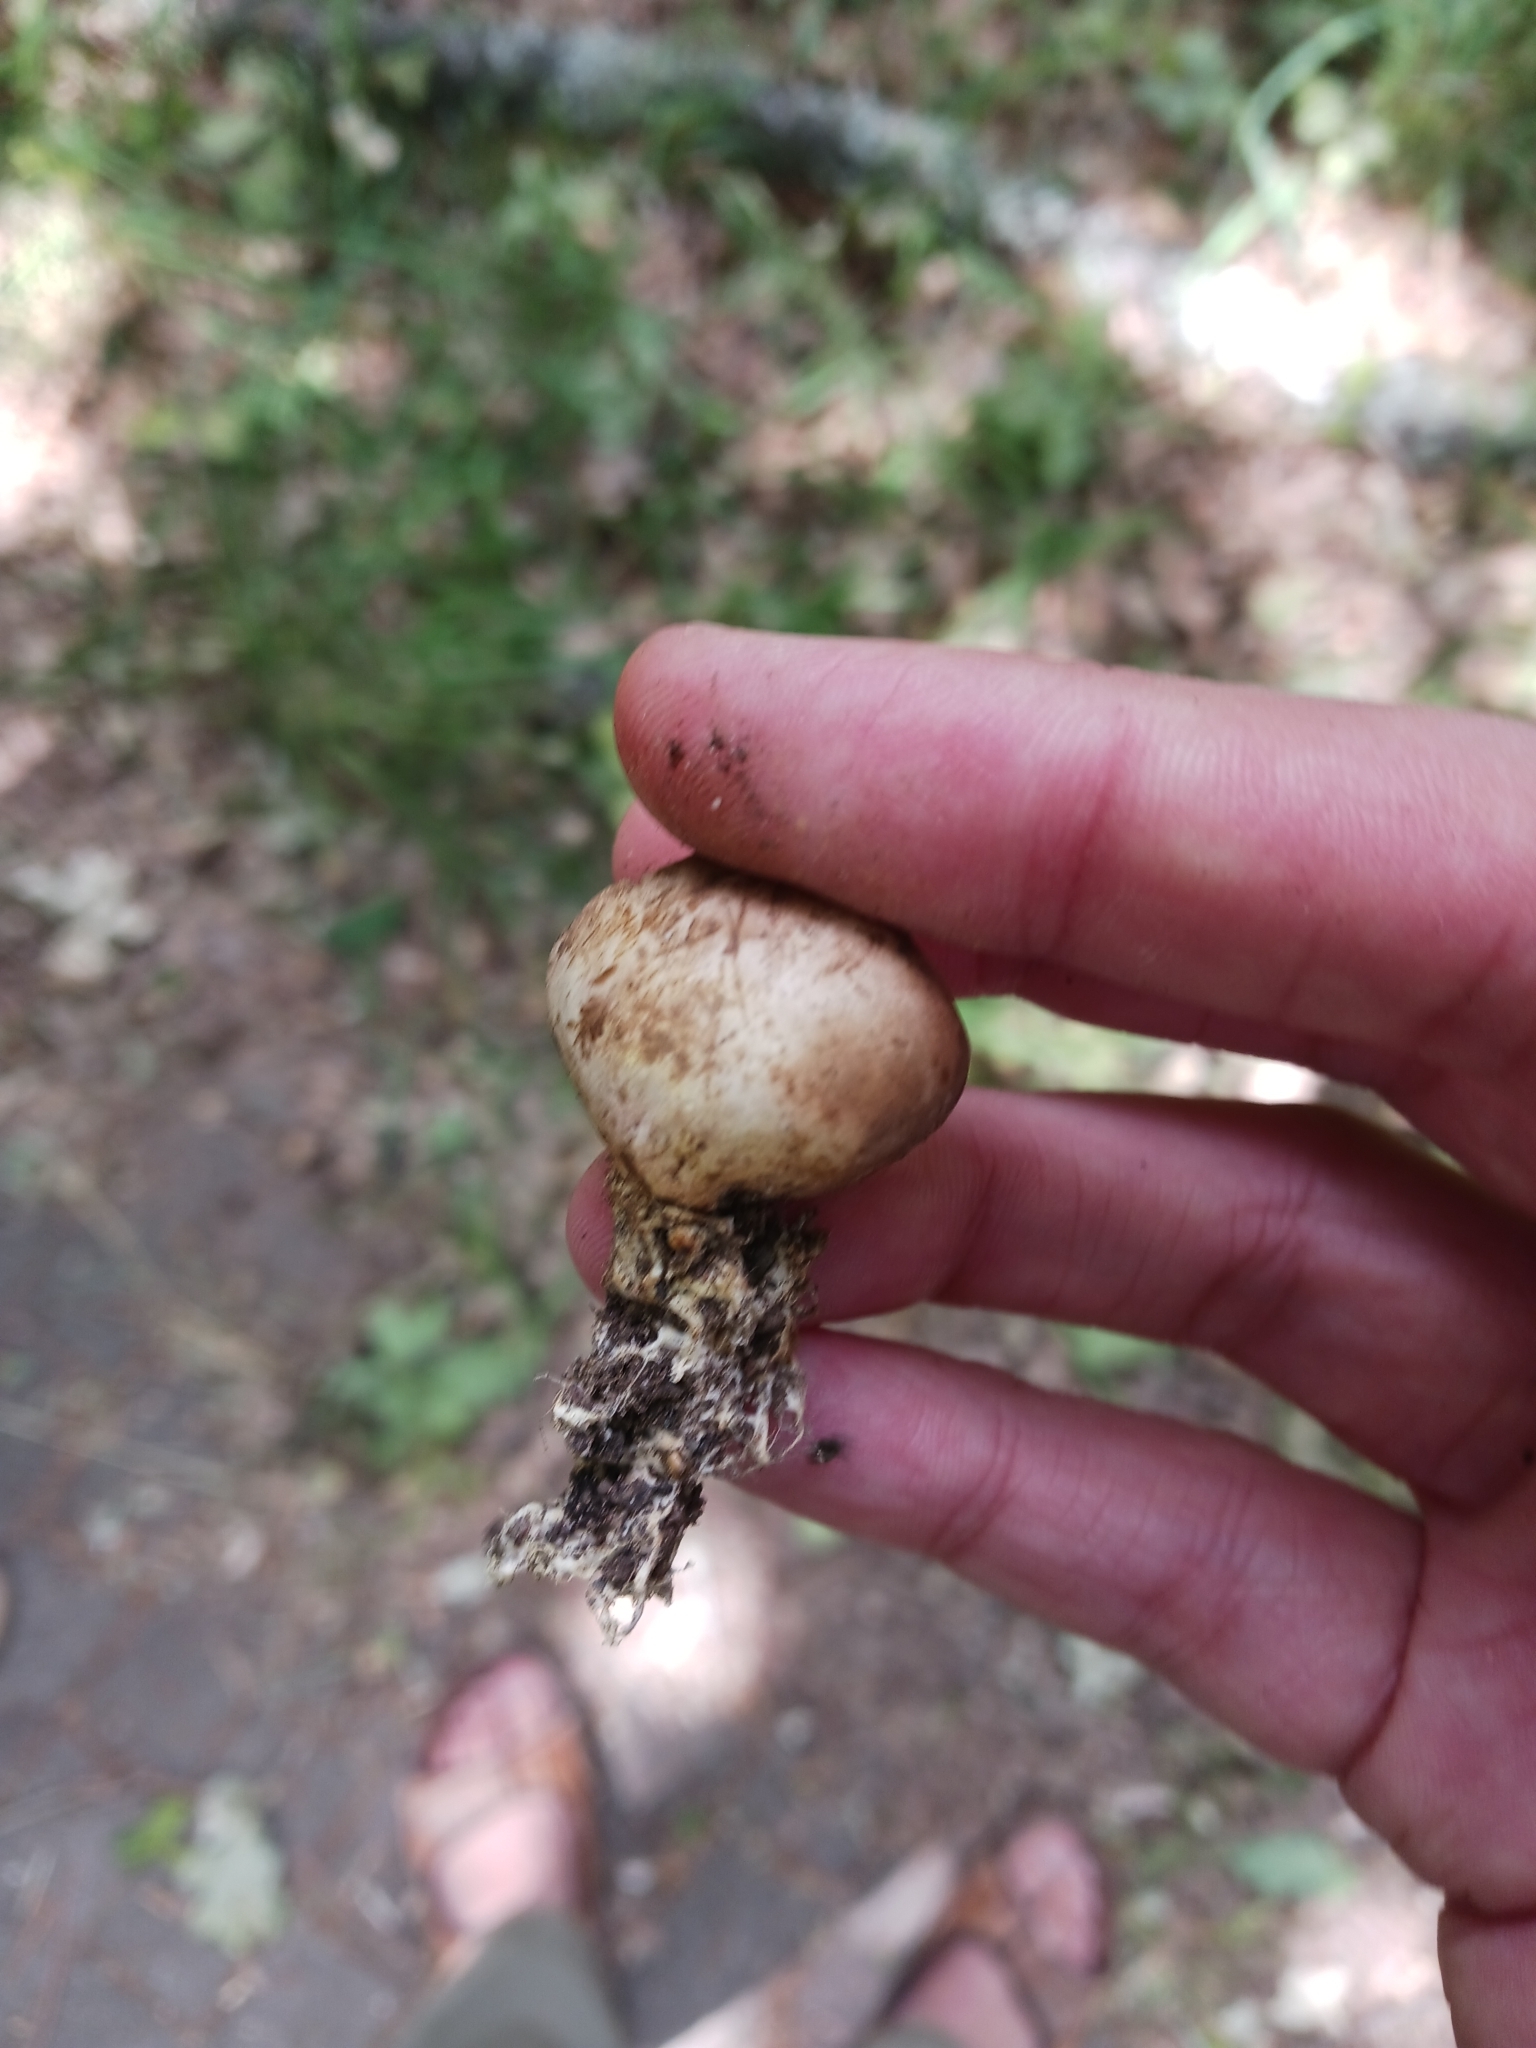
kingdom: Fungi
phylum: Basidiomycota
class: Agaricomycetes
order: Boletales
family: Sclerodermataceae
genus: Scleroderma
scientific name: Scleroderma areolatum
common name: Leopard earthball
